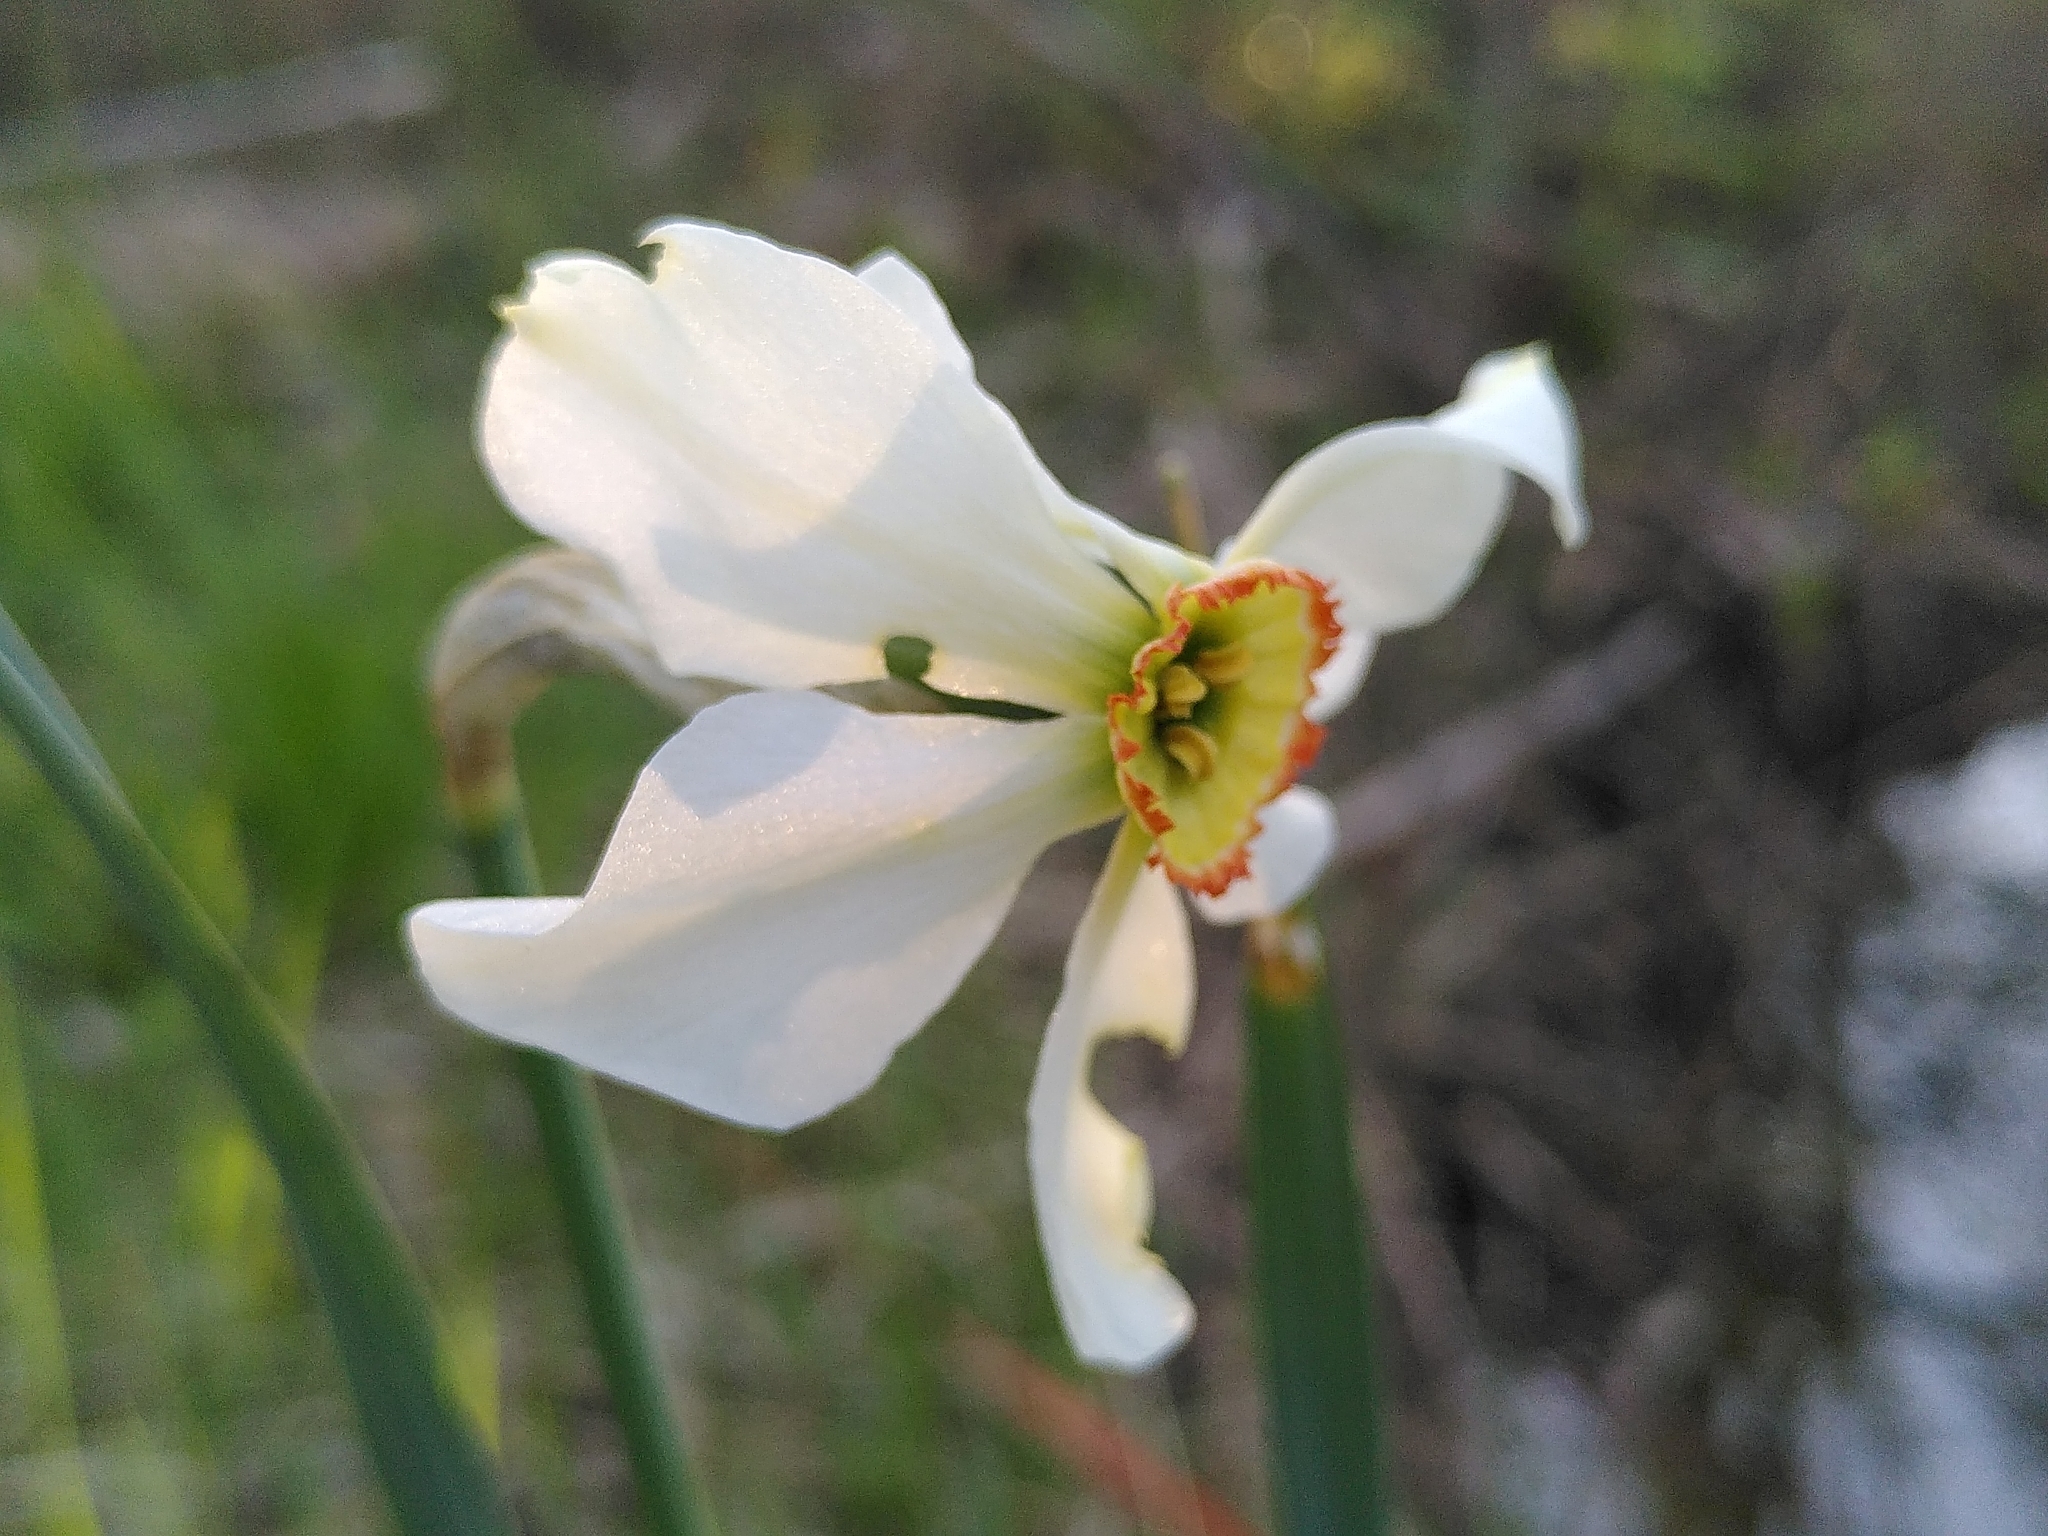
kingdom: Plantae
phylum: Tracheophyta
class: Liliopsida
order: Asparagales
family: Amaryllidaceae
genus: Narcissus
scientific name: Narcissus poeticus
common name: Pheasant's-eye daffodil
